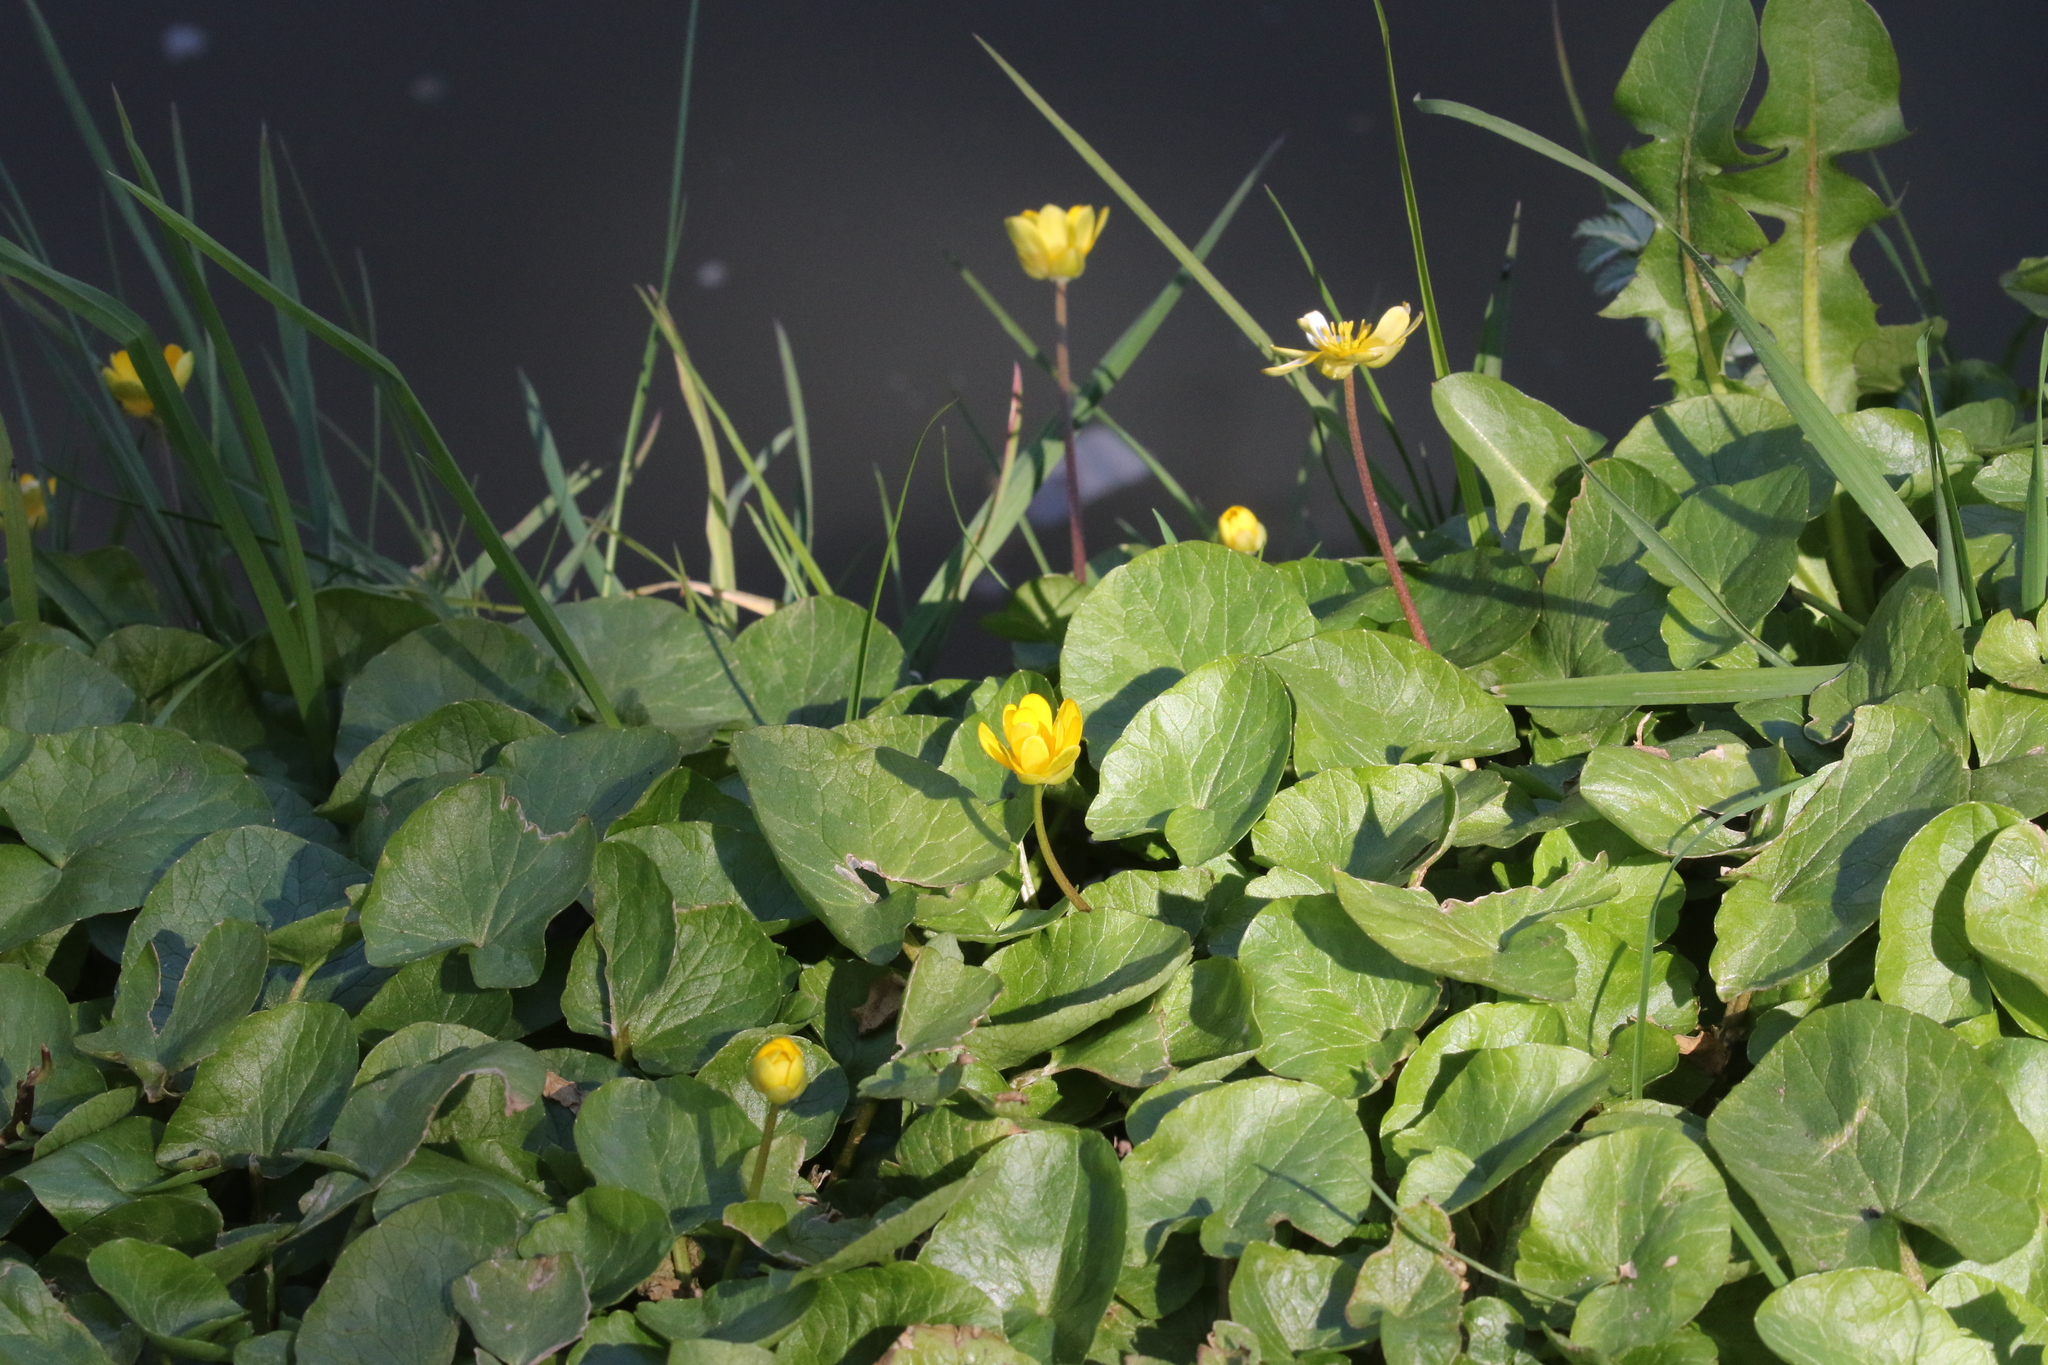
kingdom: Plantae
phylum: Tracheophyta
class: Magnoliopsida
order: Ranunculales
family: Ranunculaceae
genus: Ficaria
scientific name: Ficaria verna
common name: Lesser celandine
